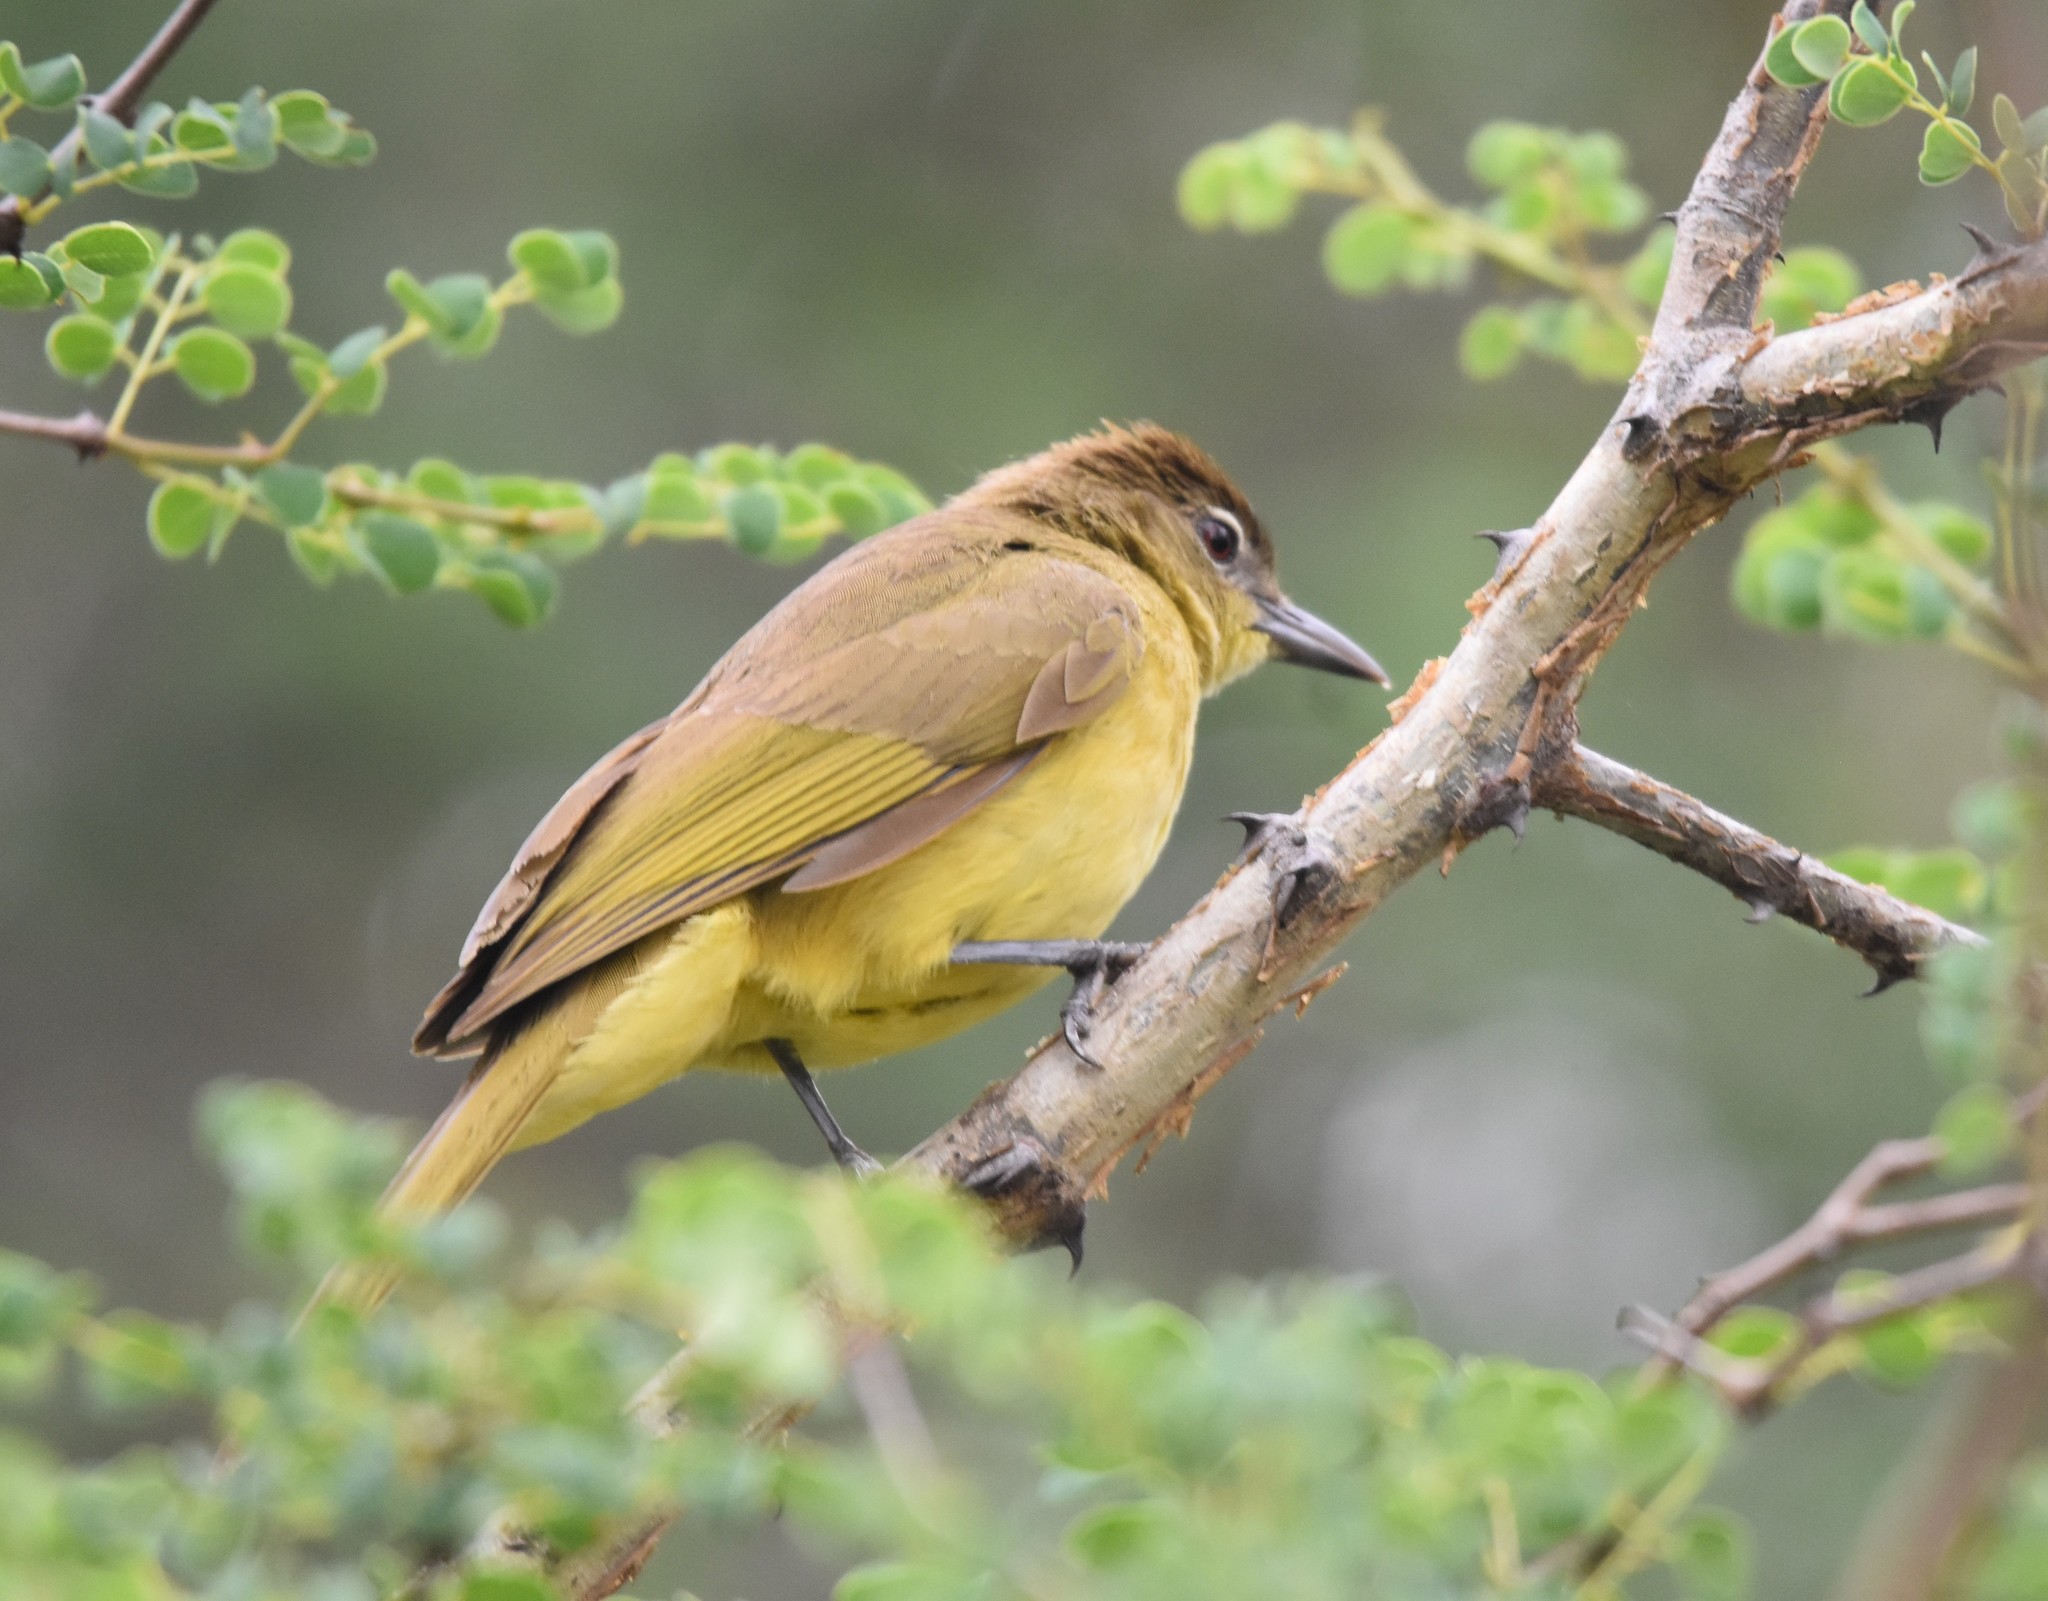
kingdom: Animalia
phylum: Chordata
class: Aves
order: Passeriformes
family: Pycnonotidae
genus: Chlorocichla
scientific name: Chlorocichla flaviventris
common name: Yellow-bellied greenbul
